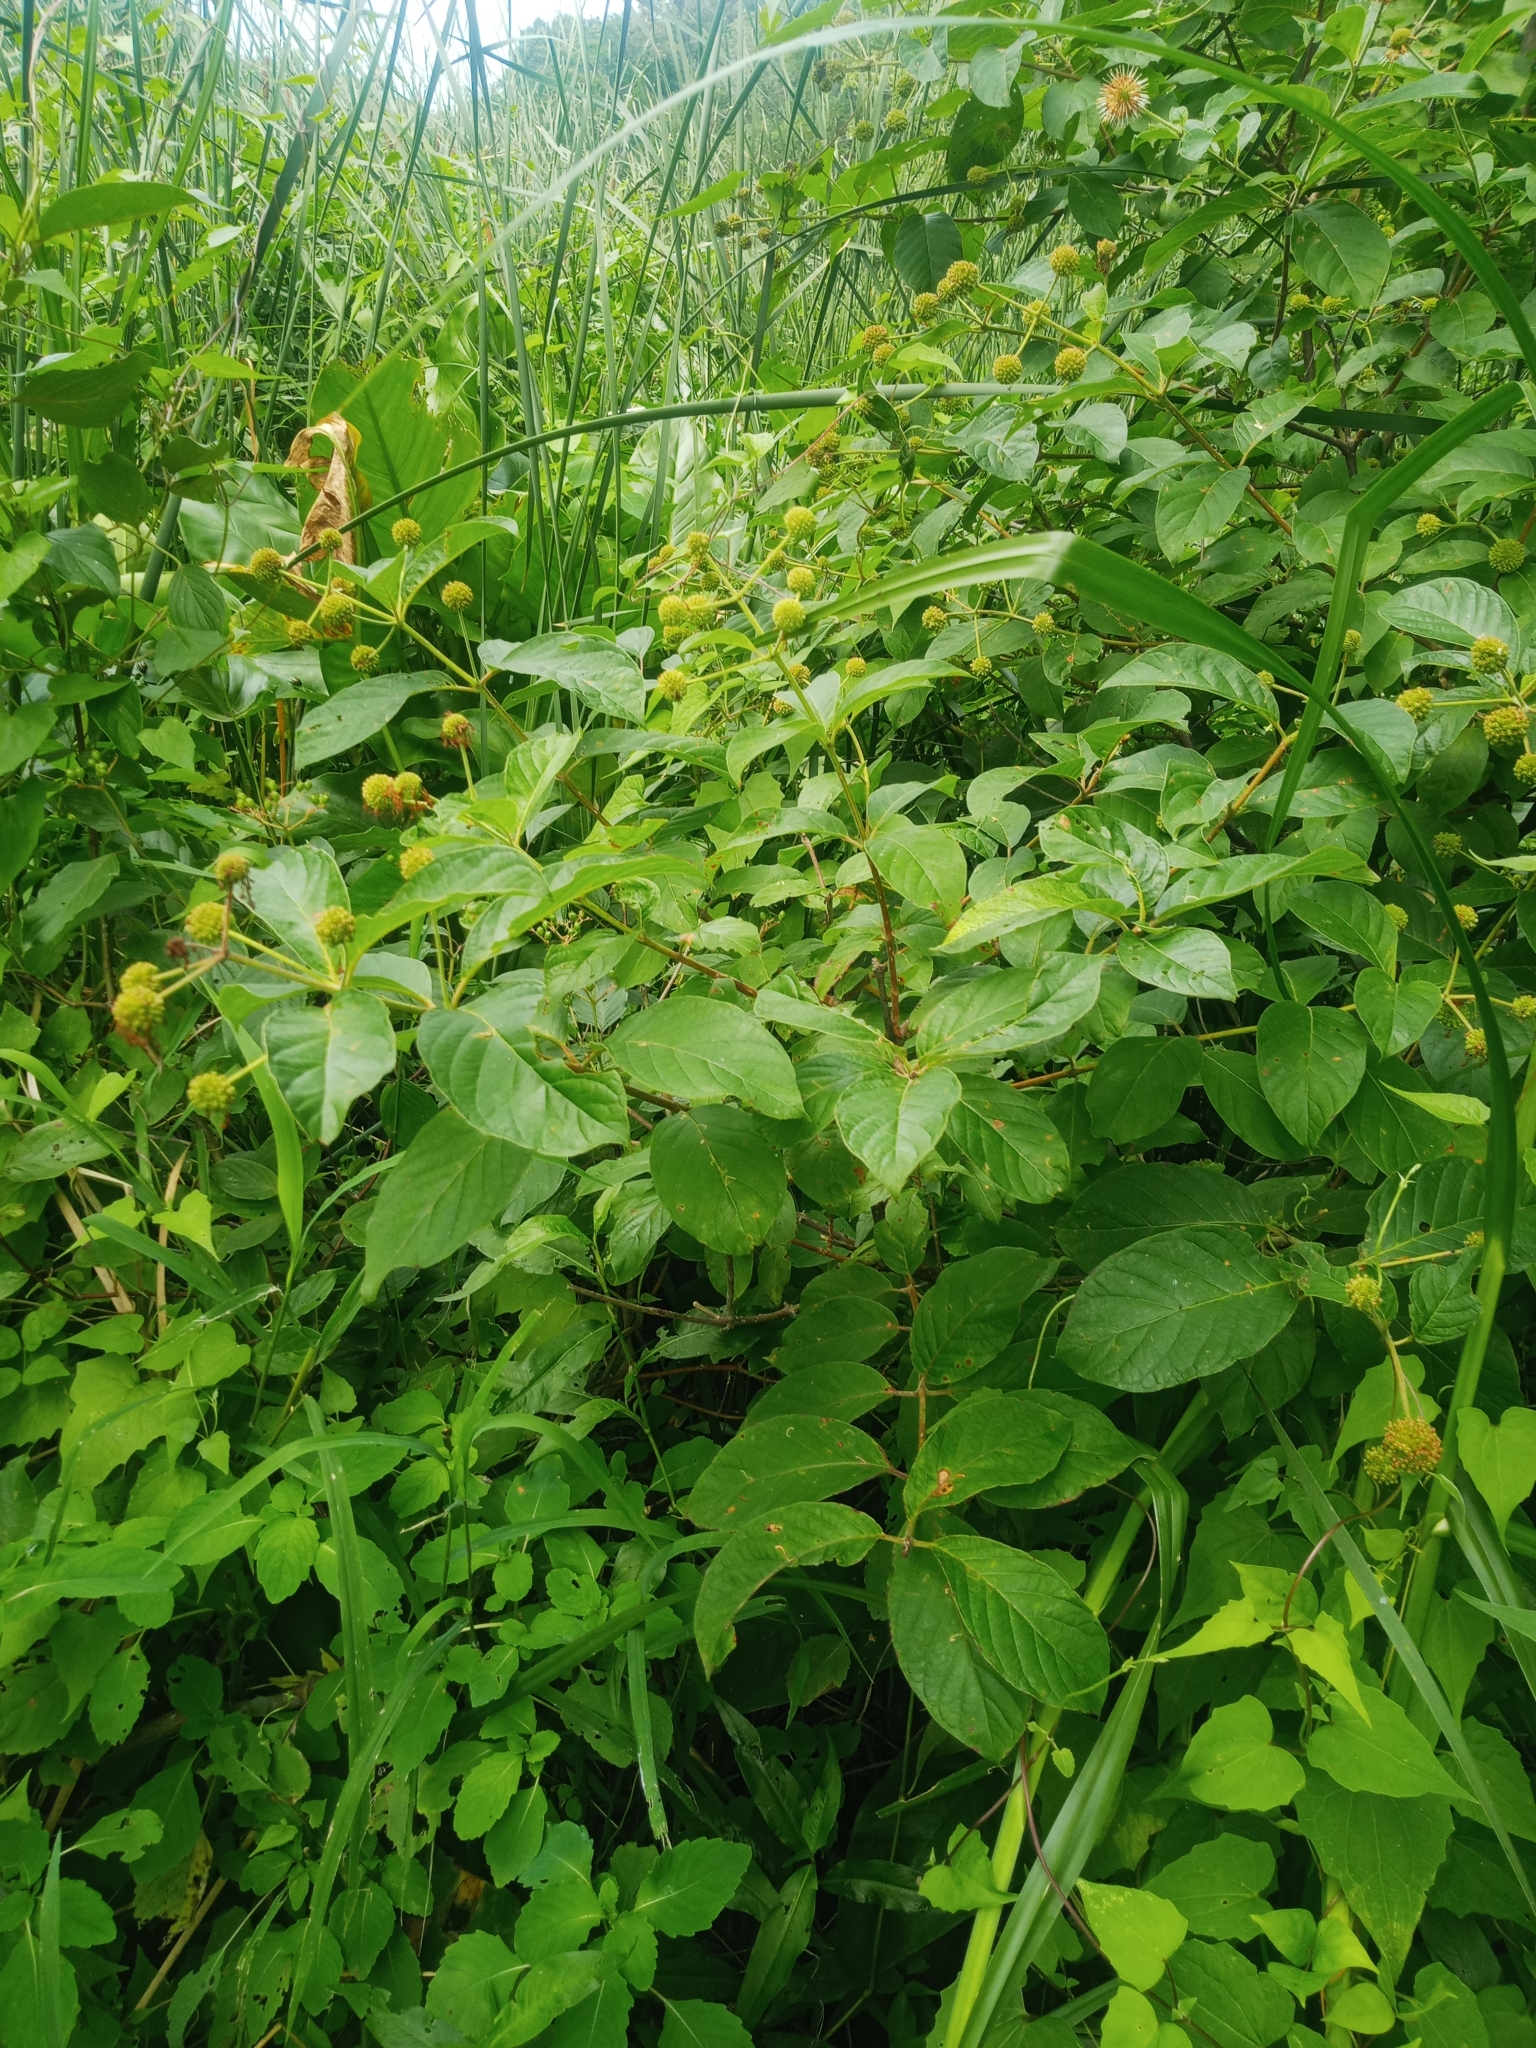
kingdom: Plantae
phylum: Tracheophyta
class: Magnoliopsida
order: Gentianales
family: Rubiaceae
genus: Cephalanthus
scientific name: Cephalanthus occidentalis
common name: Button-willow
